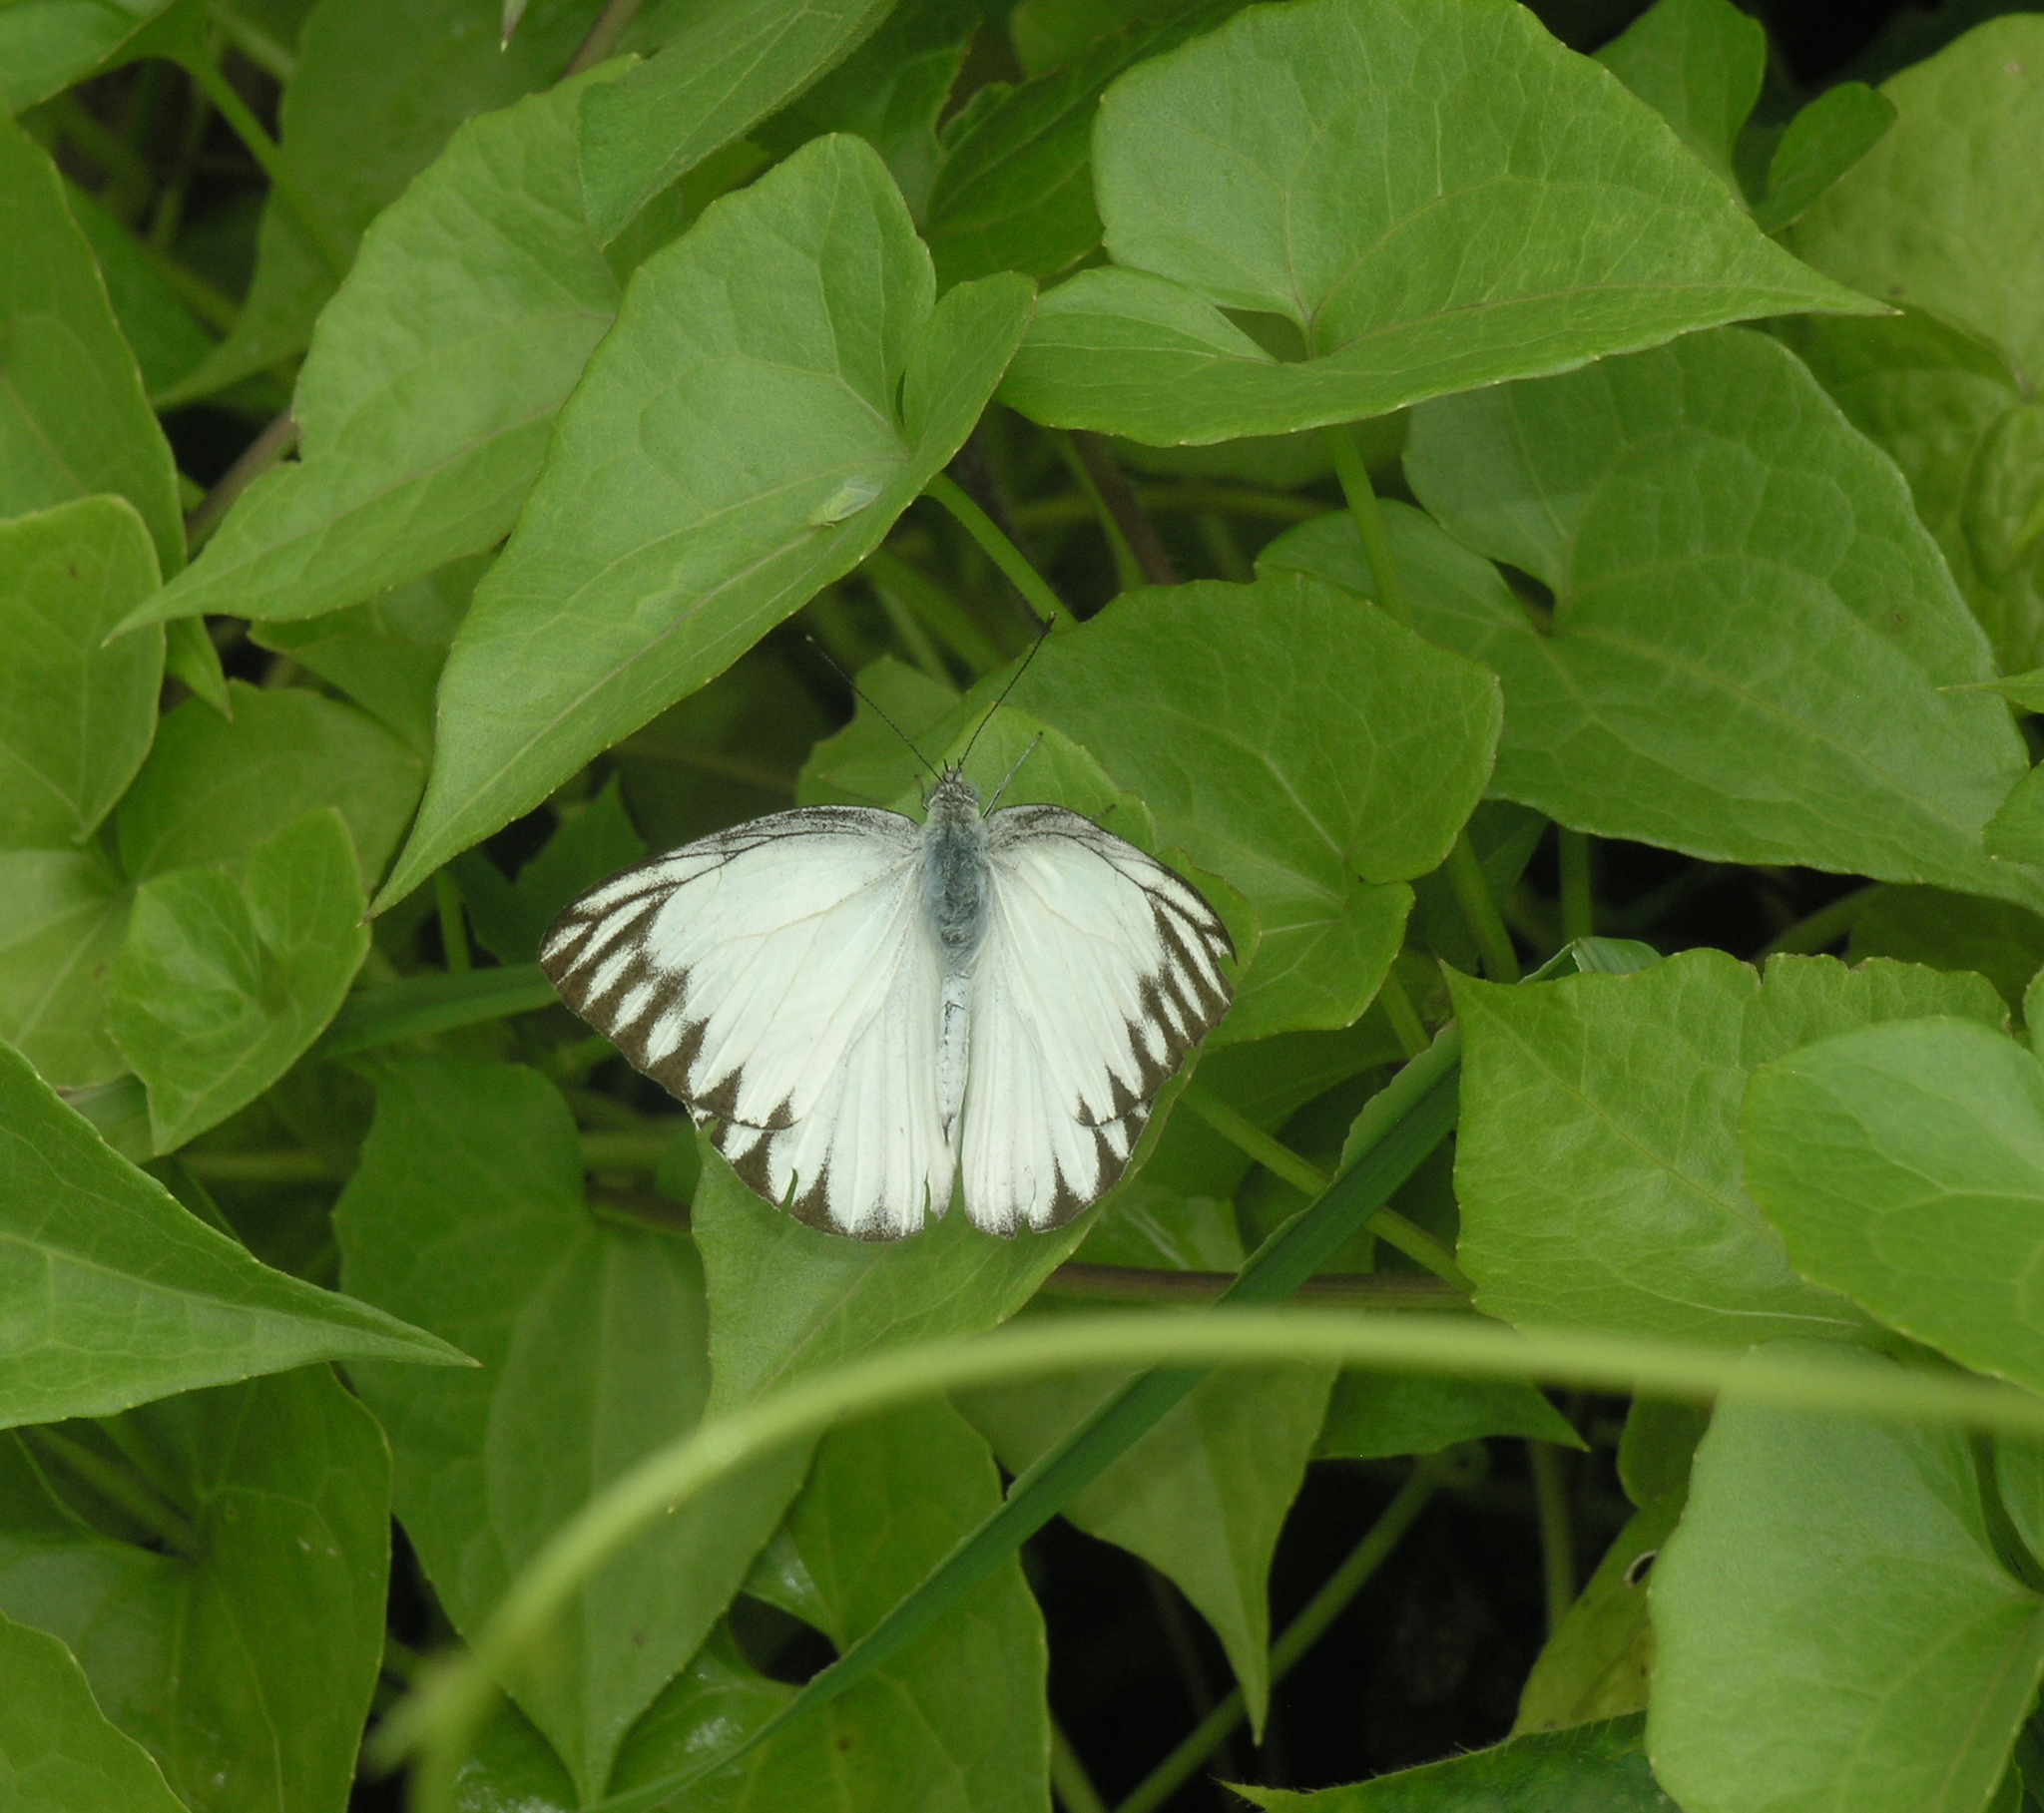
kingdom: Animalia
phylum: Arthropoda
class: Insecta
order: Lepidoptera
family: Pieridae
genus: Appias
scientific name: Appias libythea
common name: Striped albatross
